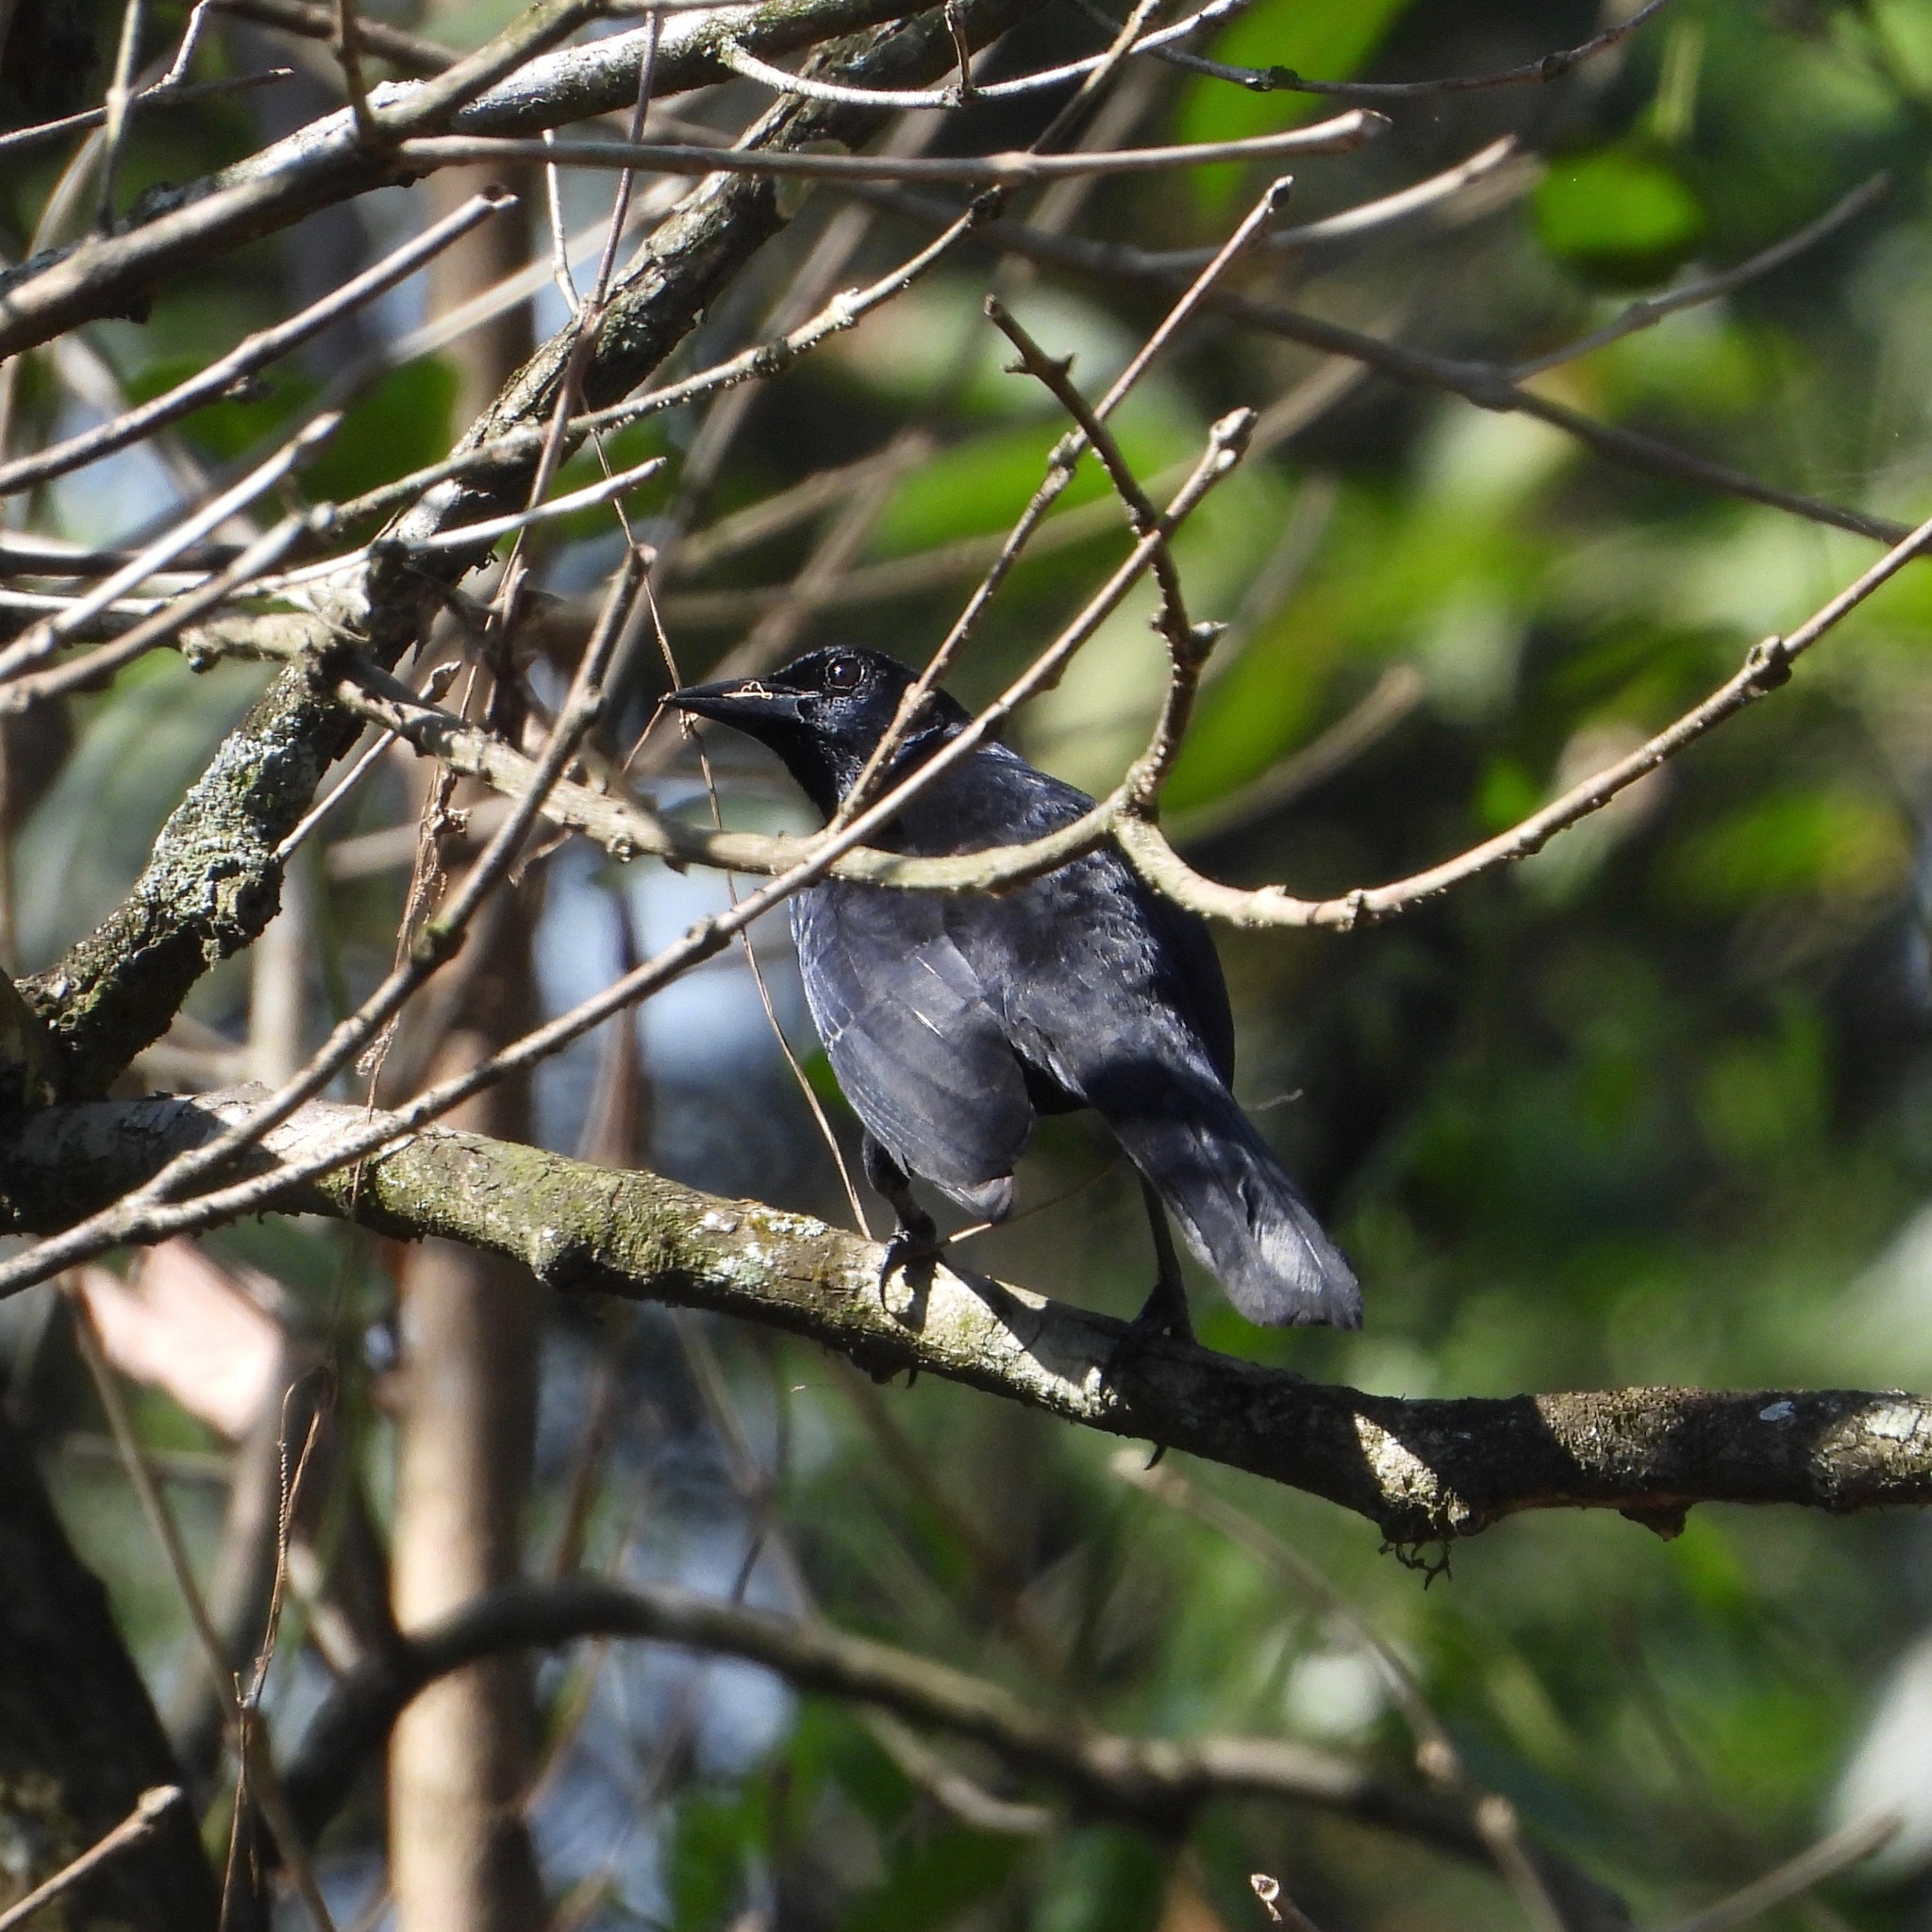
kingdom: Animalia
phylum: Chordata
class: Aves
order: Passeriformes
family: Icteridae
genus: Dives
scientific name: Dives dives
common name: Melodious blackbird
